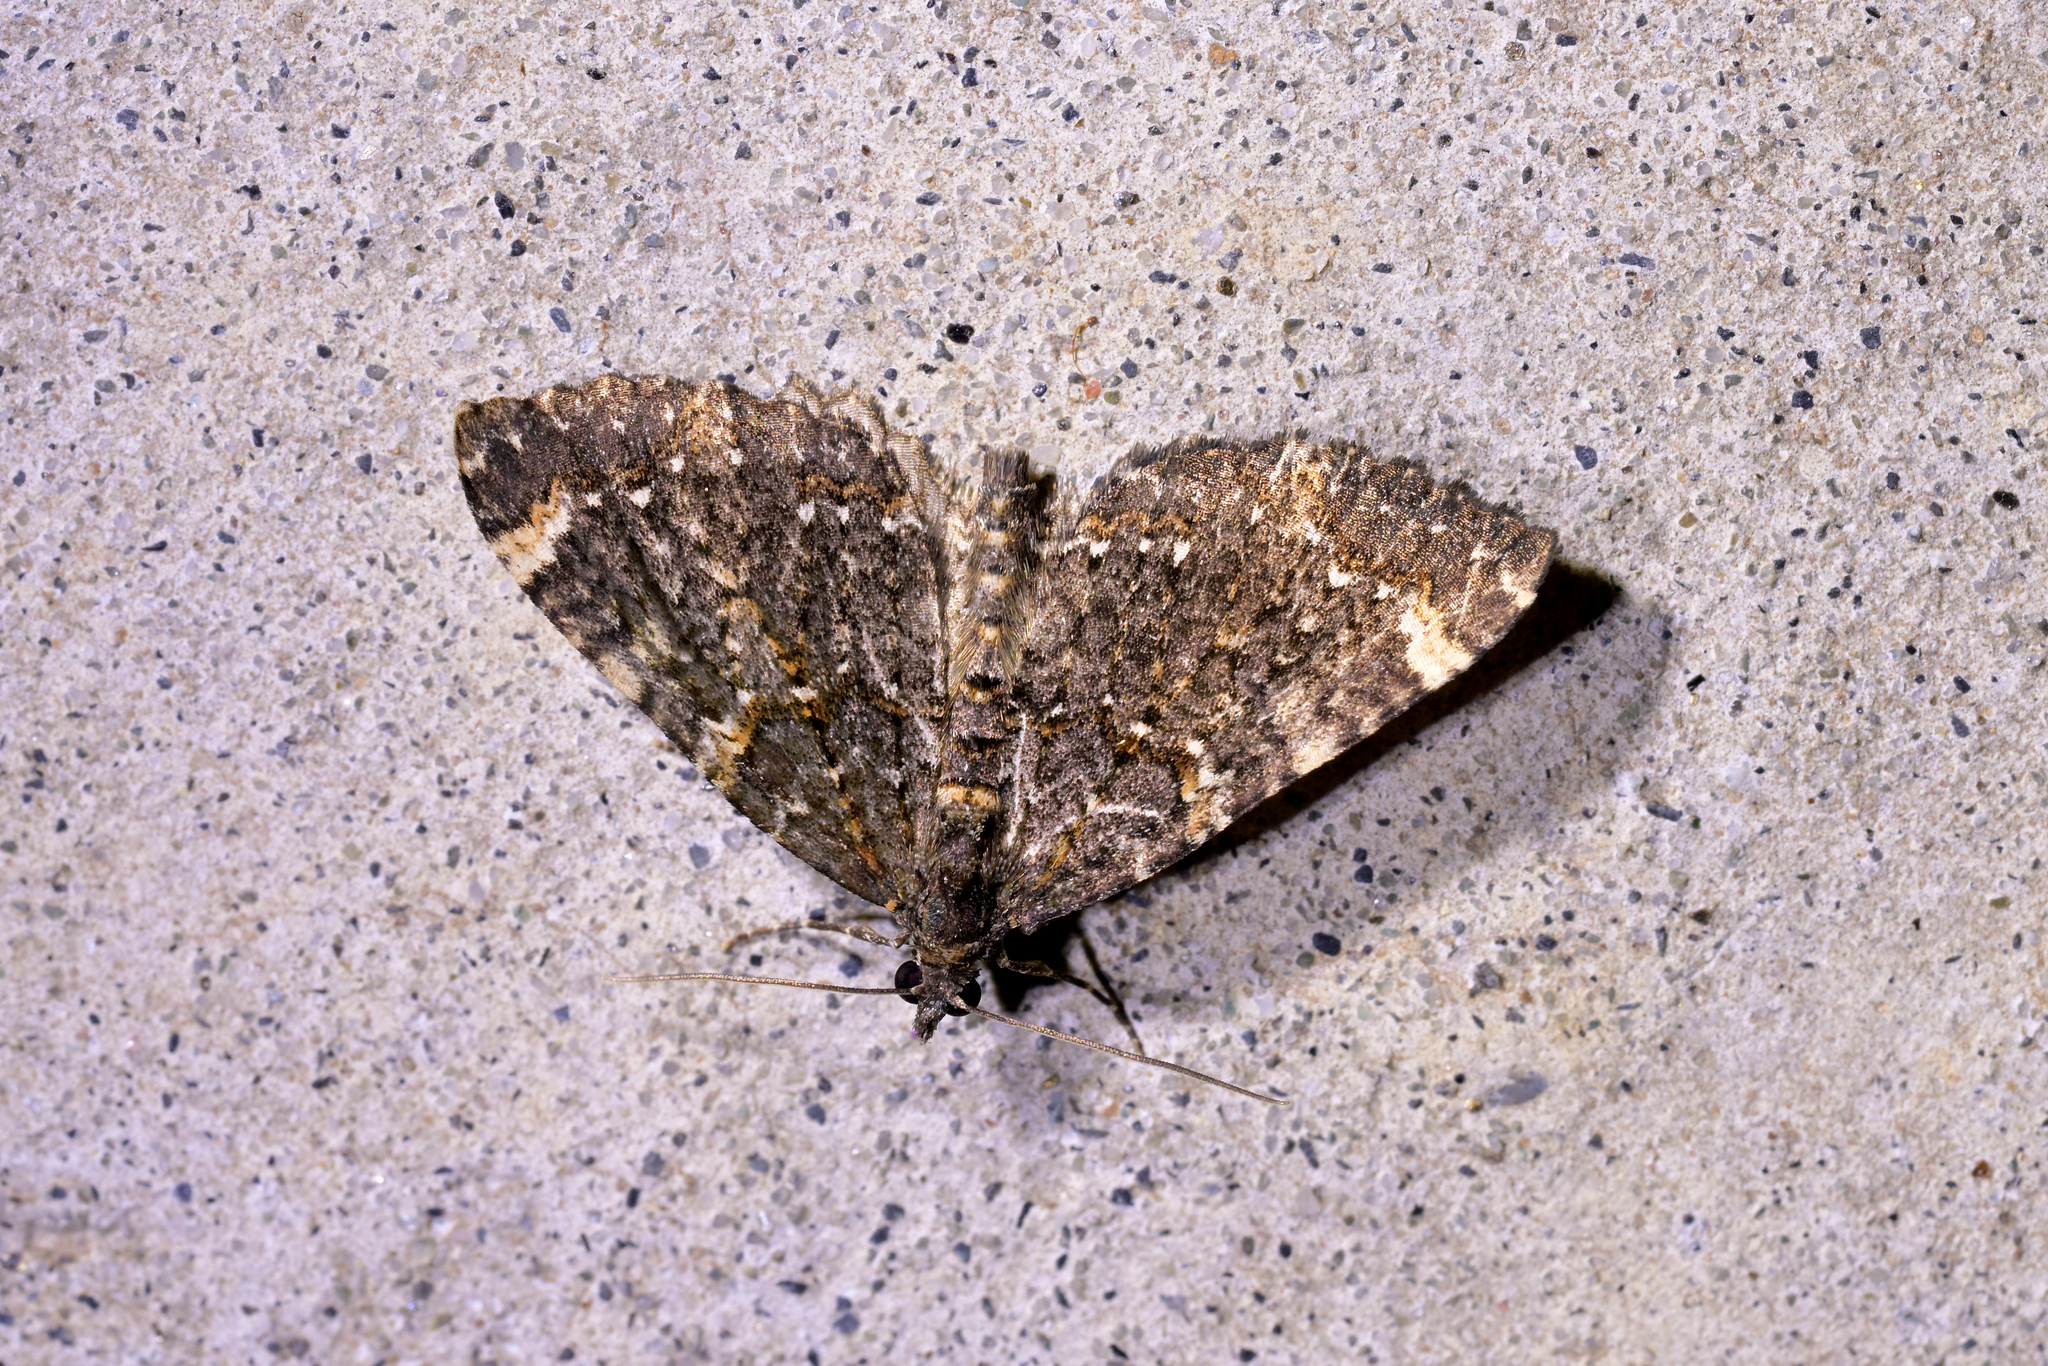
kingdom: Animalia
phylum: Arthropoda
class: Insecta
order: Lepidoptera
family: Geometridae
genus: Hydriomena
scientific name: Hydriomena arida
